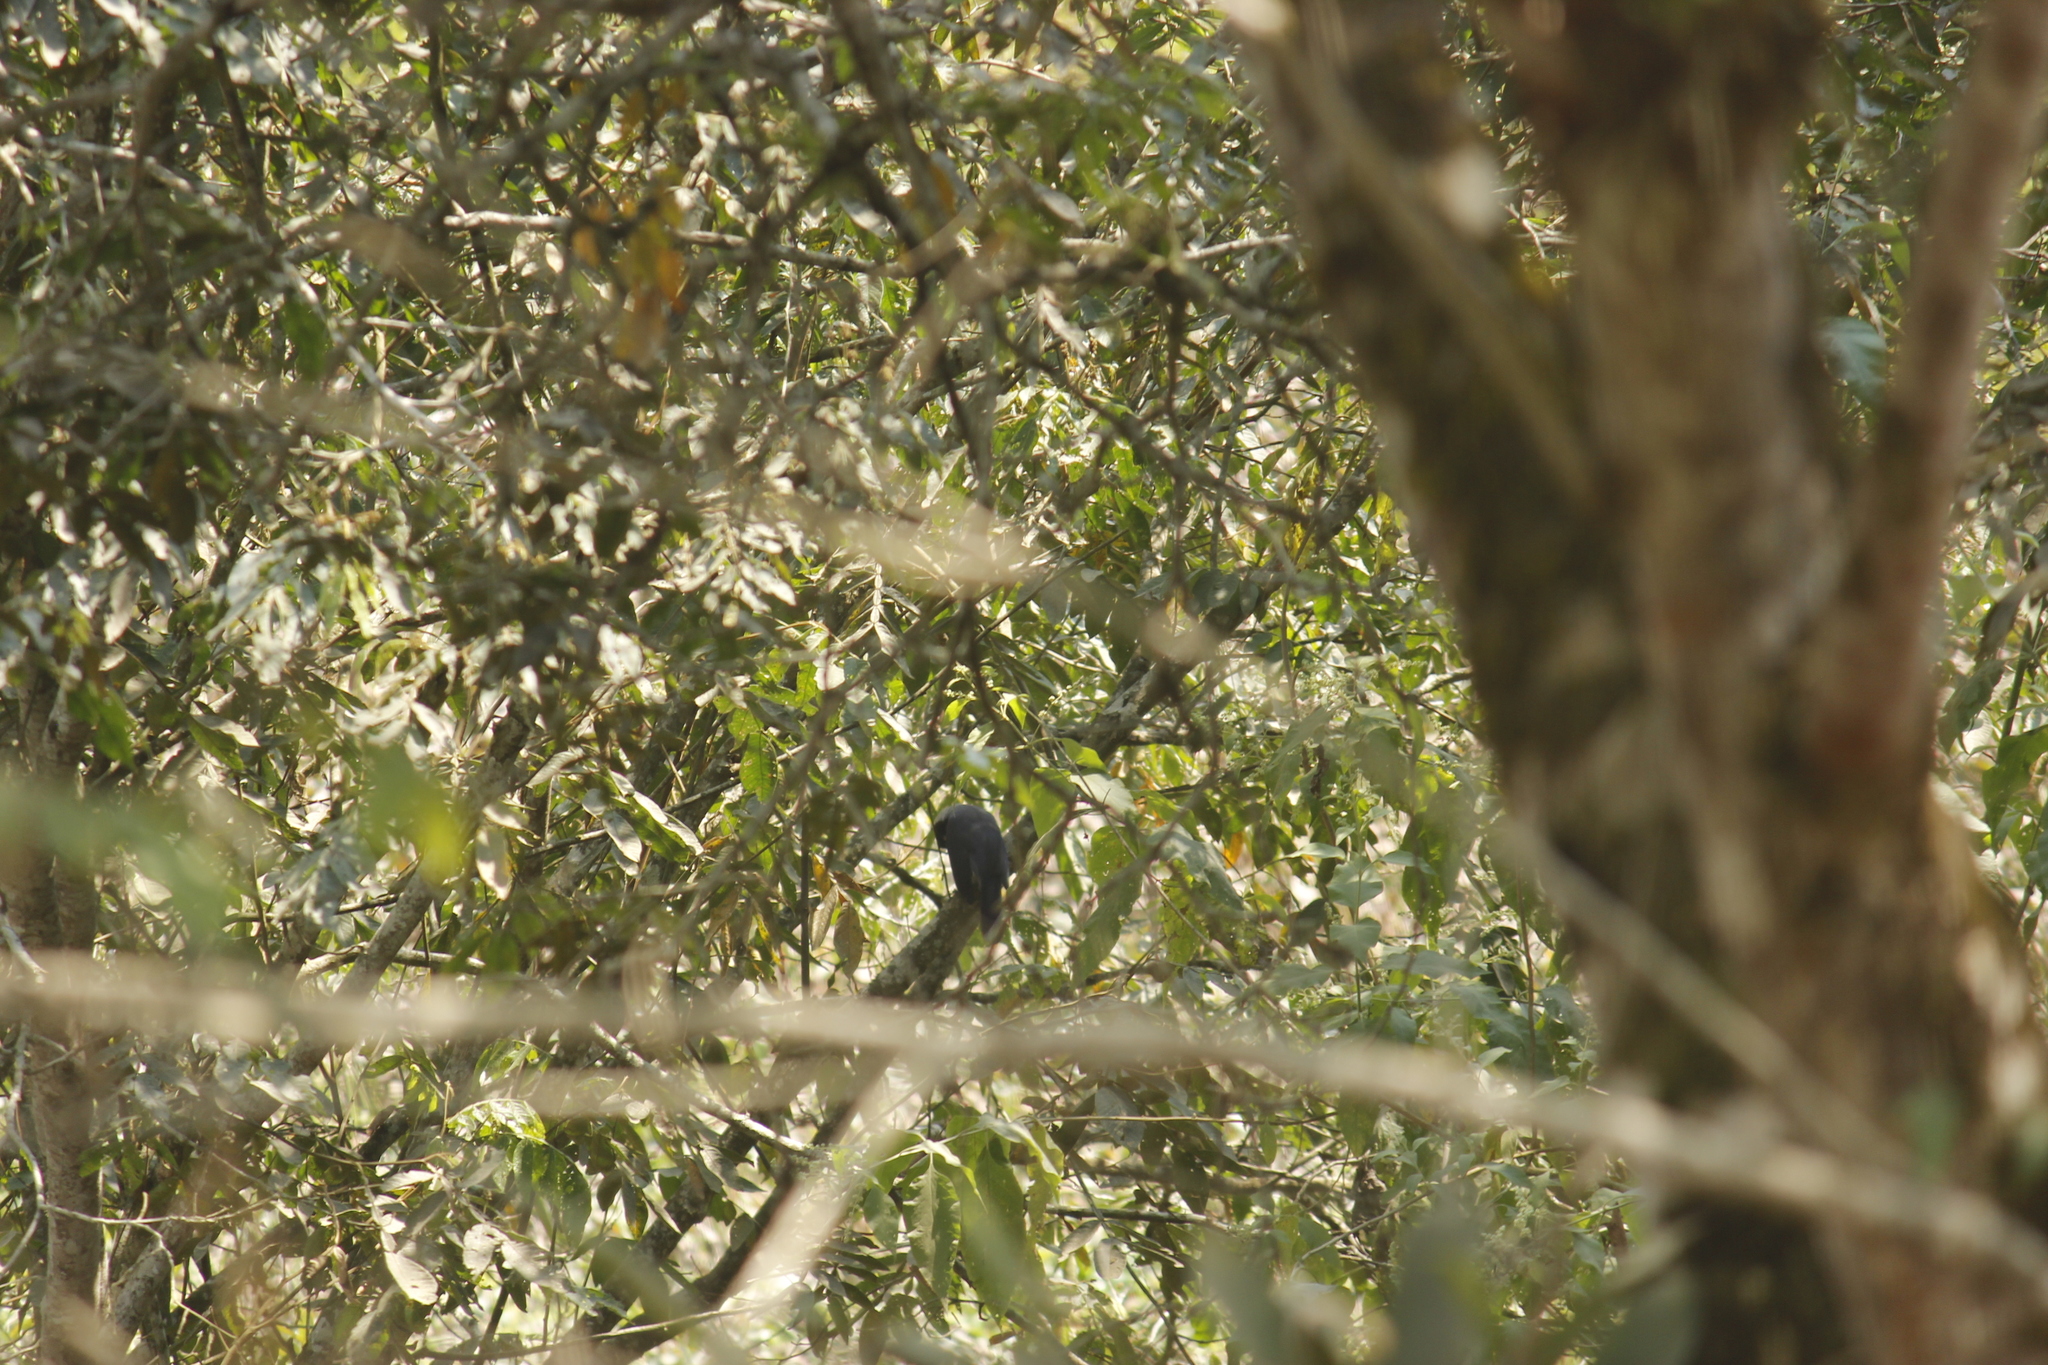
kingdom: Animalia
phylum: Chordata
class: Aves
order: Passeriformes
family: Corvidae
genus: Cyanocorax
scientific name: Cyanocorax violaceus
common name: Violaceous jay
